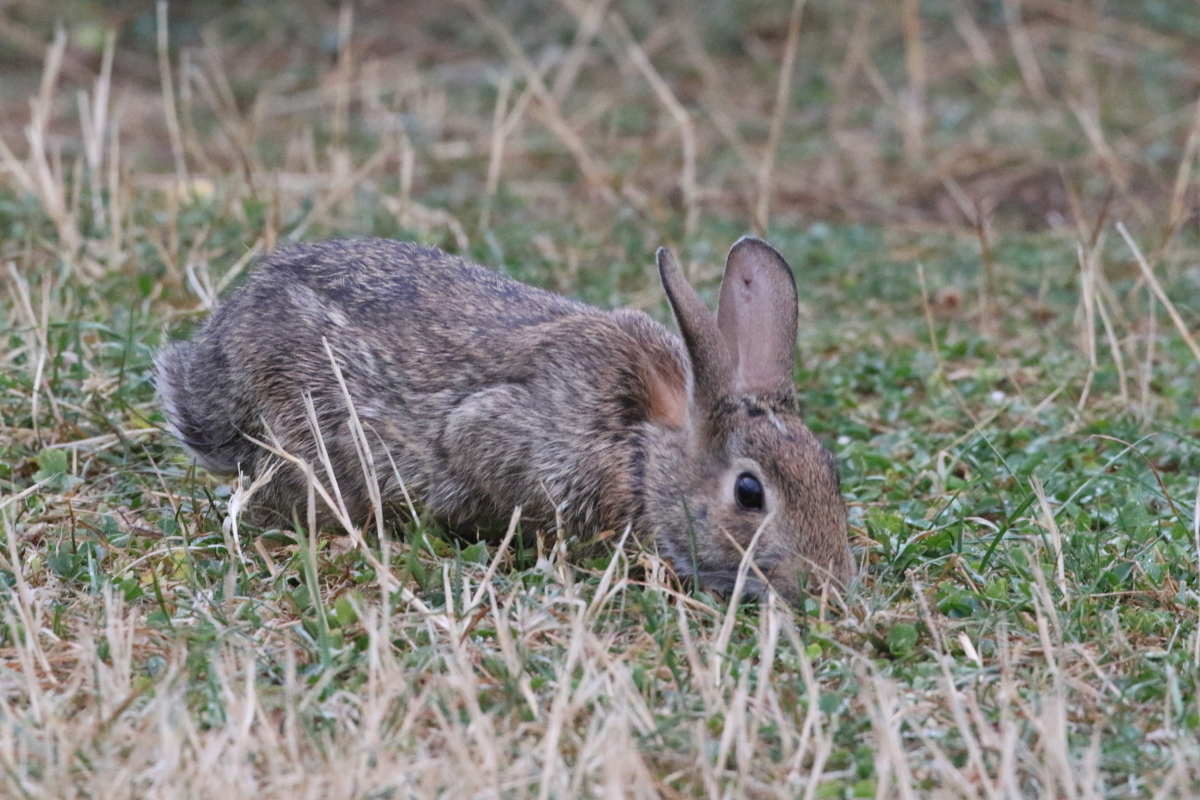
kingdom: Animalia
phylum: Chordata
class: Mammalia
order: Lagomorpha
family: Leporidae
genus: Sylvilagus
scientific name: Sylvilagus floridanus
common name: Eastern cottontail
